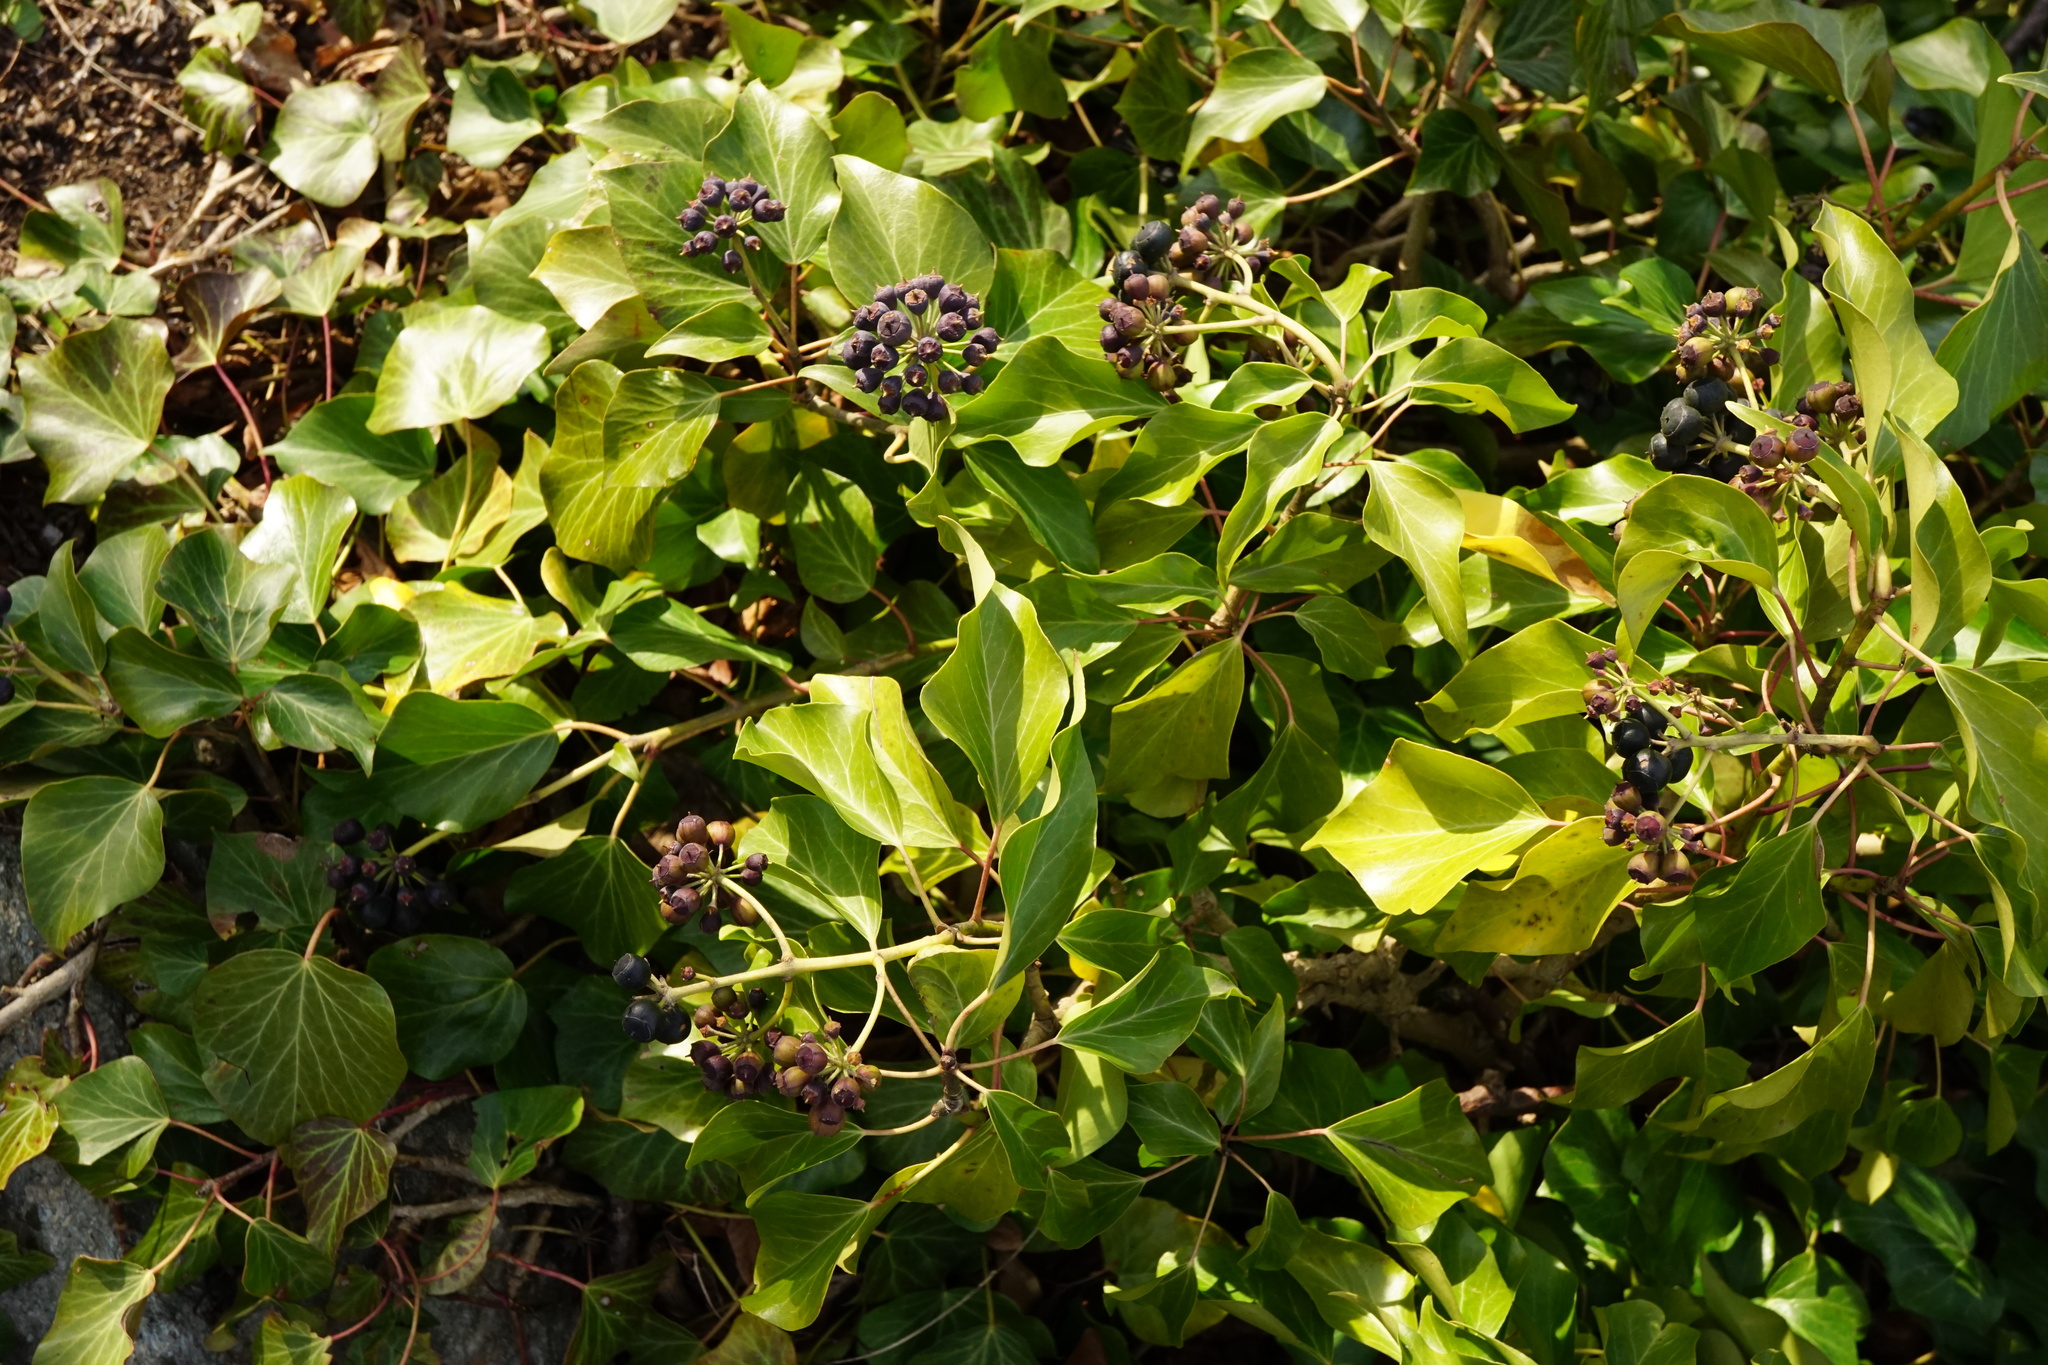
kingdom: Plantae
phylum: Tracheophyta
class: Magnoliopsida
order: Apiales
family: Araliaceae
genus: Hedera
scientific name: Hedera helix
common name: Ivy
